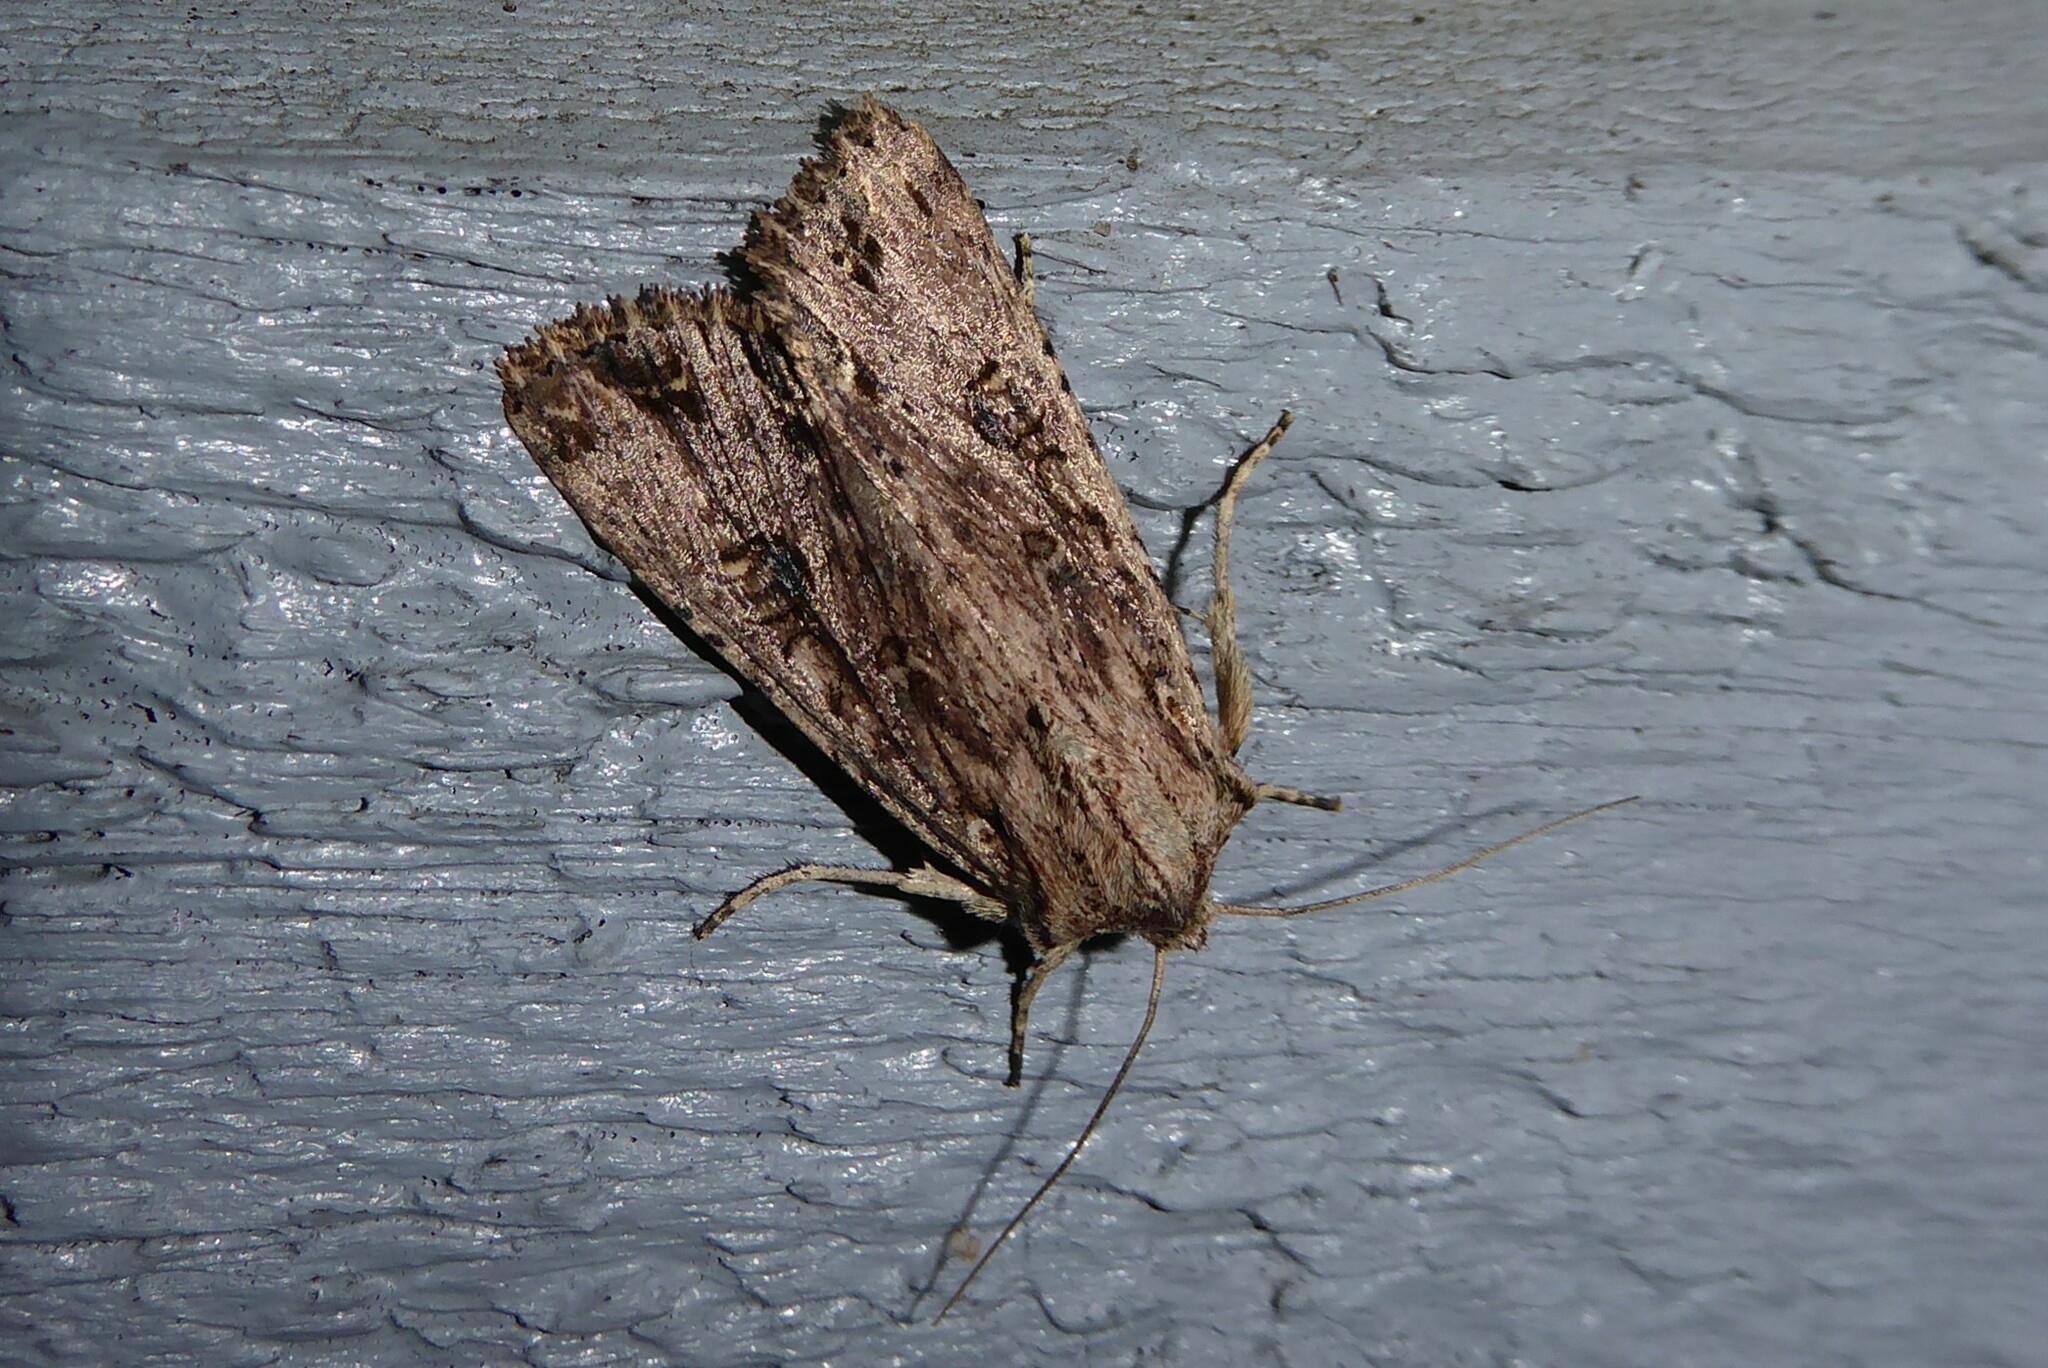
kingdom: Animalia
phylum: Arthropoda
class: Insecta
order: Lepidoptera
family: Noctuidae
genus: Ichneutica
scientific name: Ichneutica lignana
